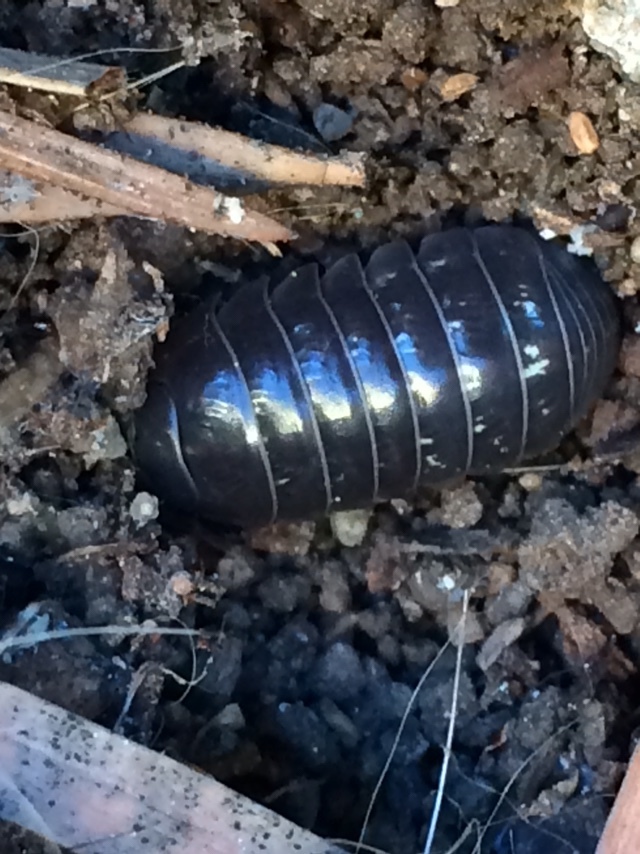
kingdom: Animalia
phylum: Arthropoda
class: Malacostraca
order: Isopoda
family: Armadillidiidae
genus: Armadillidium
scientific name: Armadillidium vulgare
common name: Common pill woodlouse
